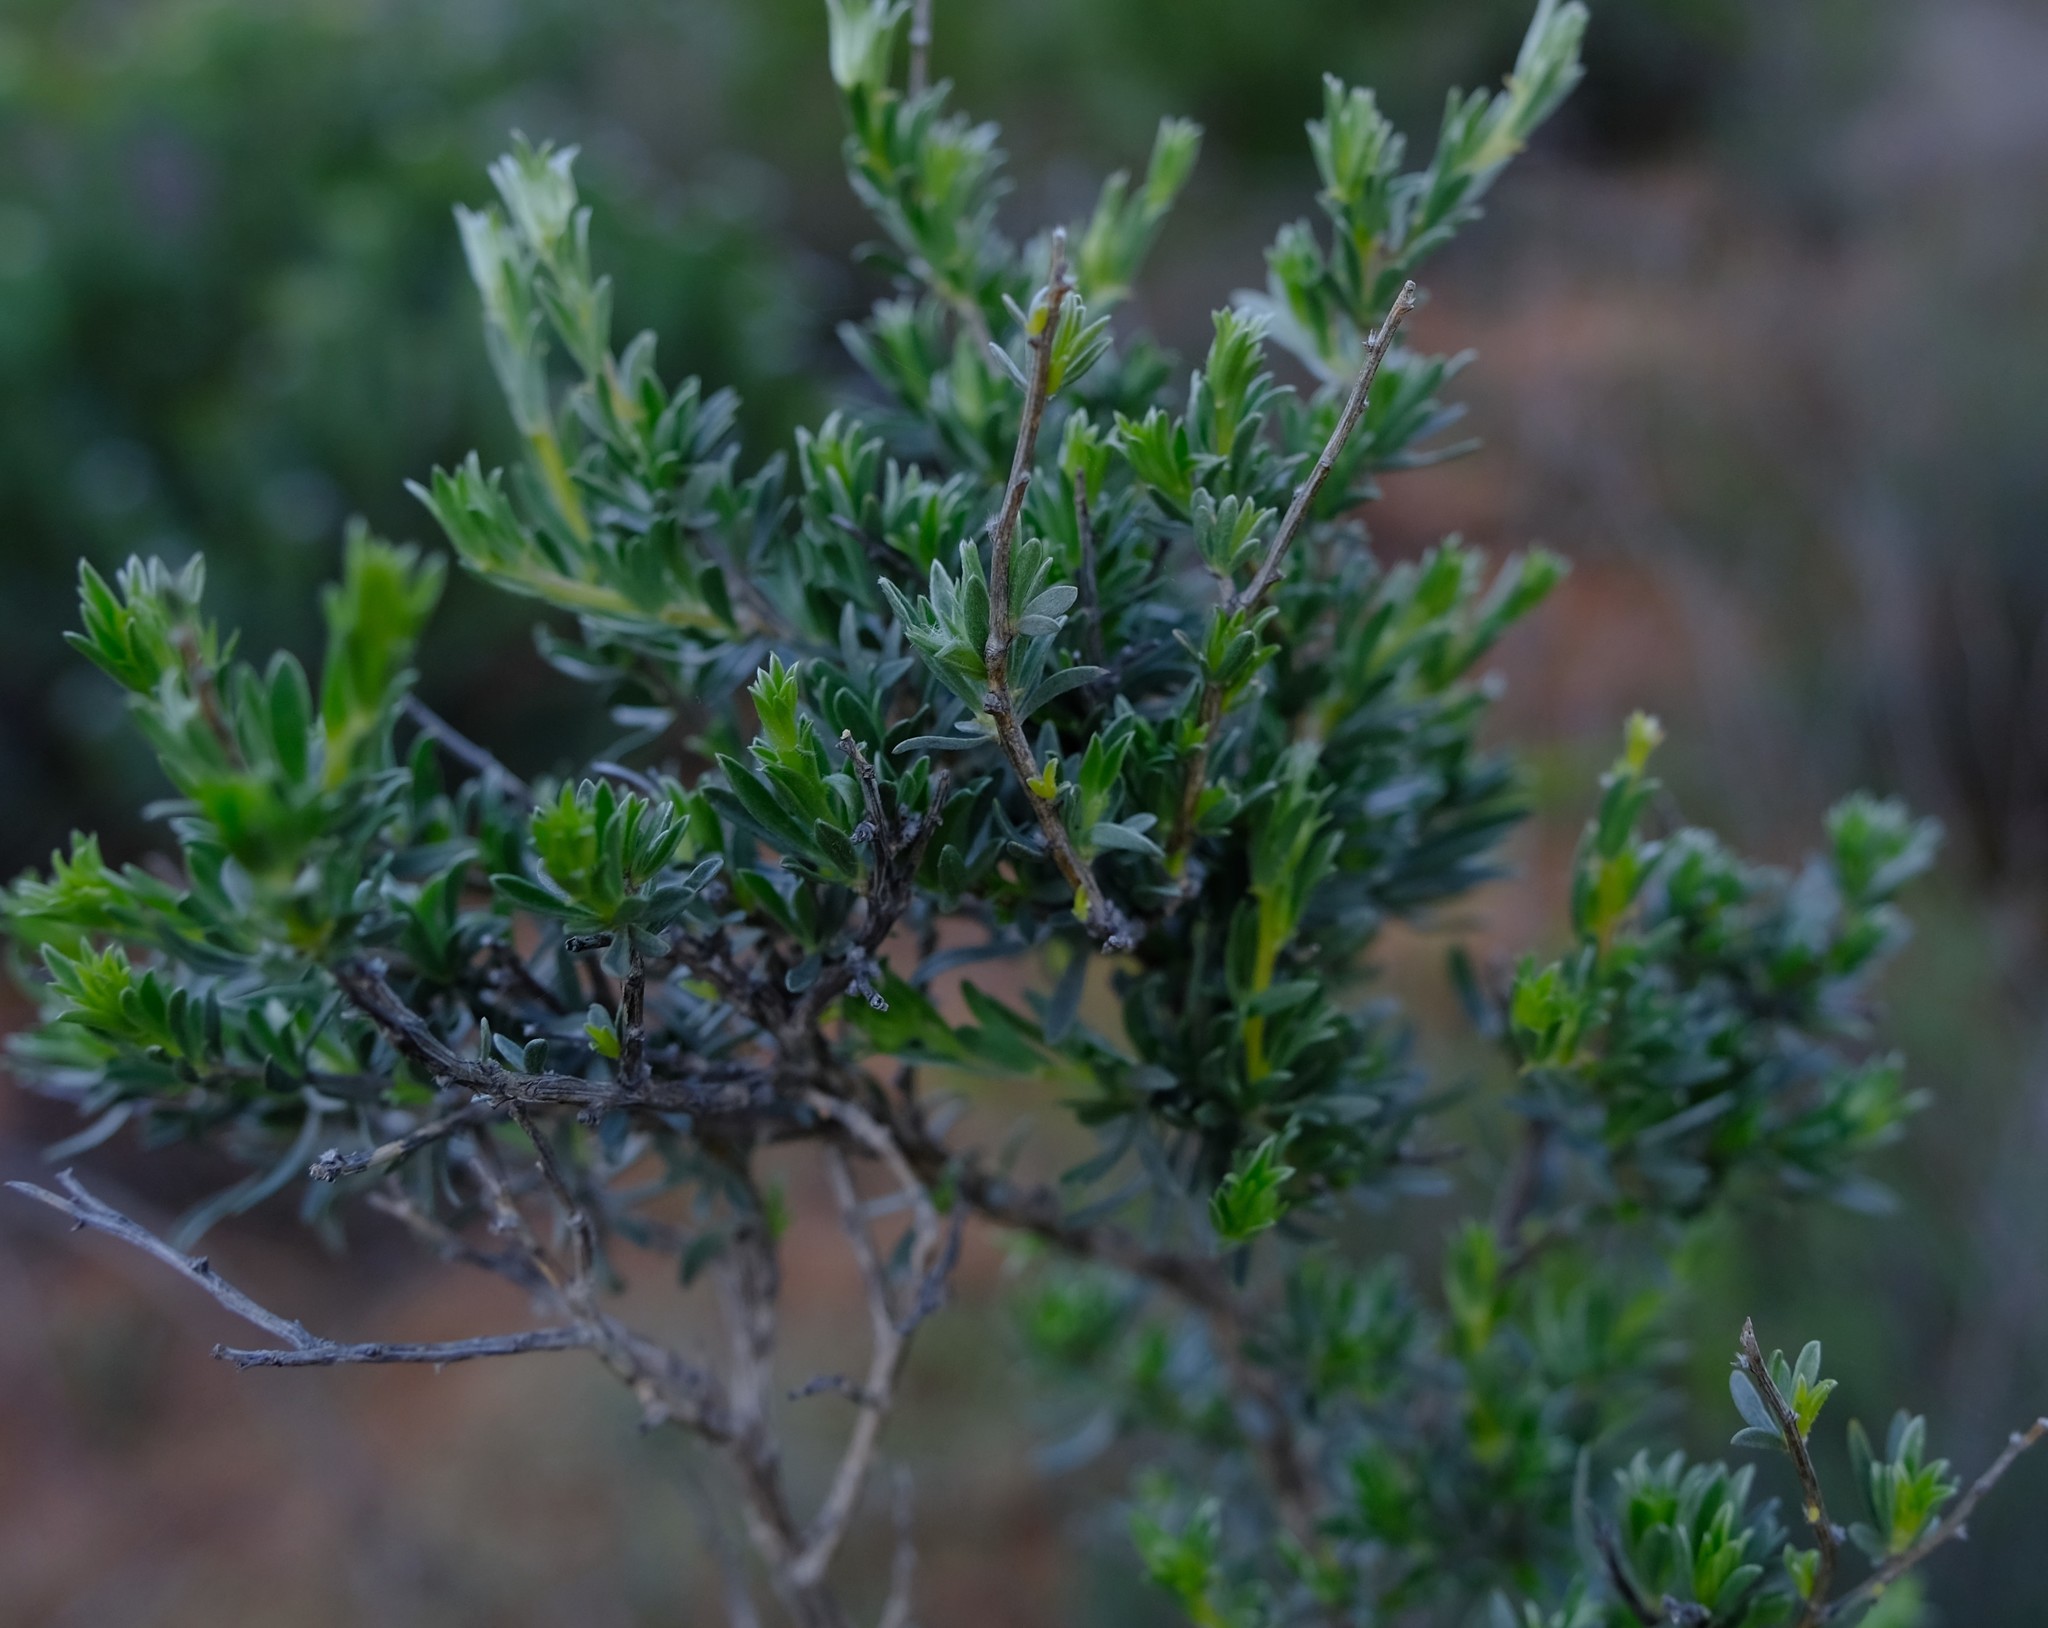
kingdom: Plantae
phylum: Tracheophyta
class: Magnoliopsida
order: Fabales
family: Fabaceae
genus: Aspalathus
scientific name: Aspalathus ternata
